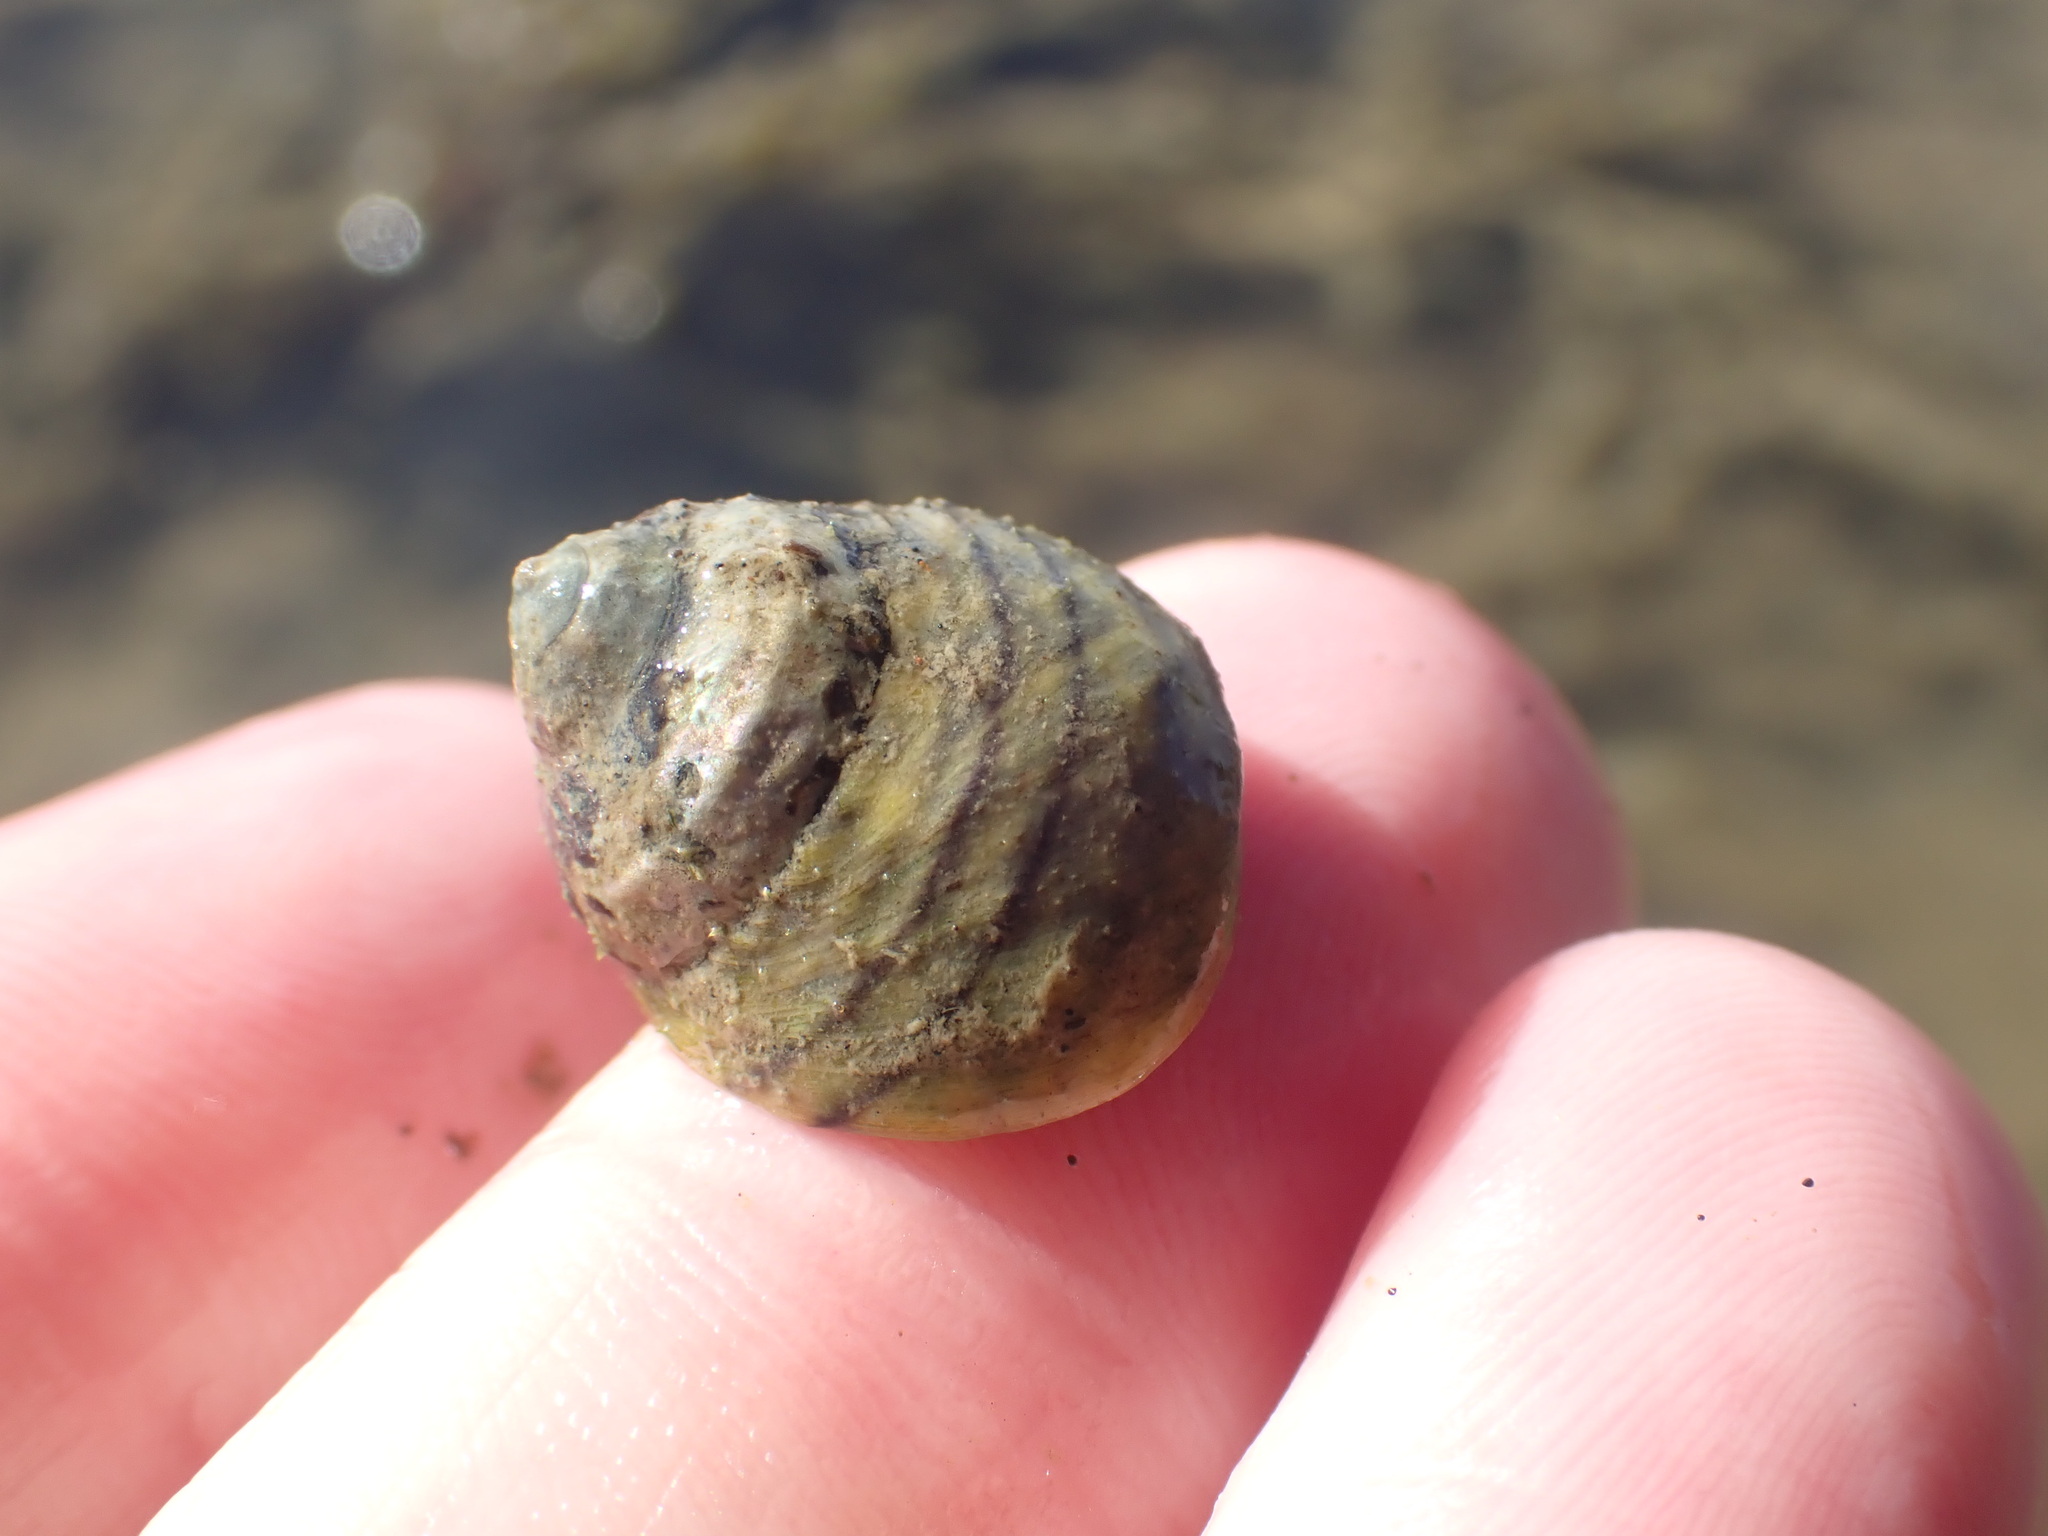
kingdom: Animalia
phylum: Mollusca
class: Gastropoda
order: Trochida
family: Trochidae
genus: Diloma
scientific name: Diloma subrostratum
